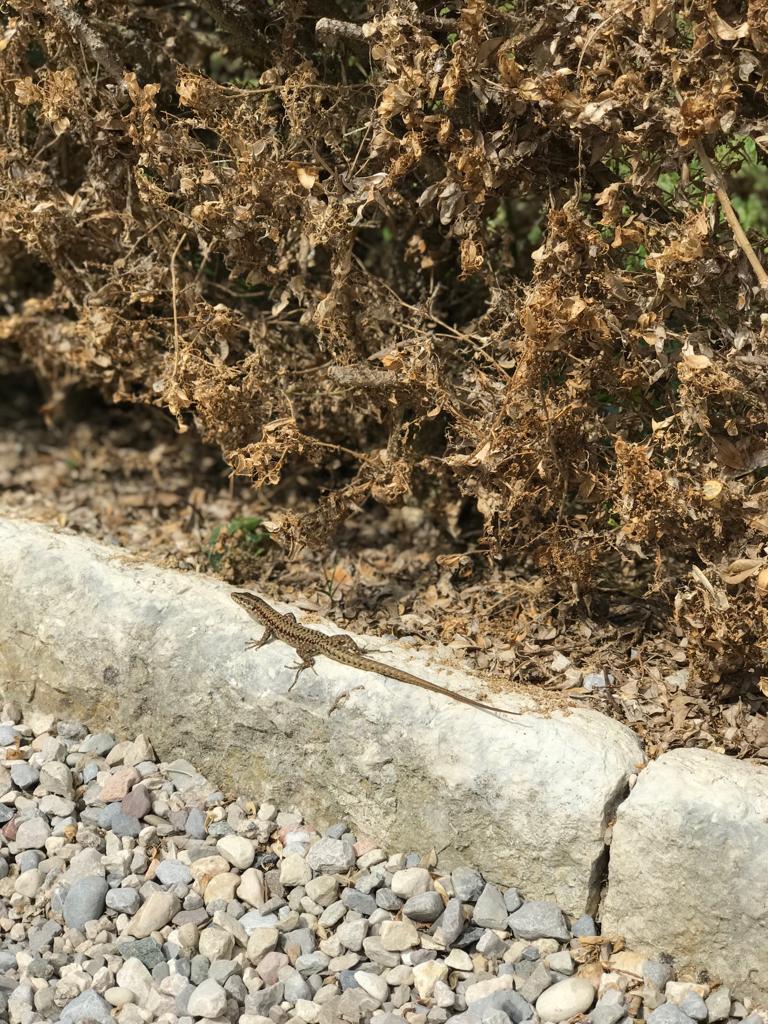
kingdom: Animalia
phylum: Chordata
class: Squamata
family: Lacertidae
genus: Podarcis
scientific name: Podarcis muralis
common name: Common wall lizard
